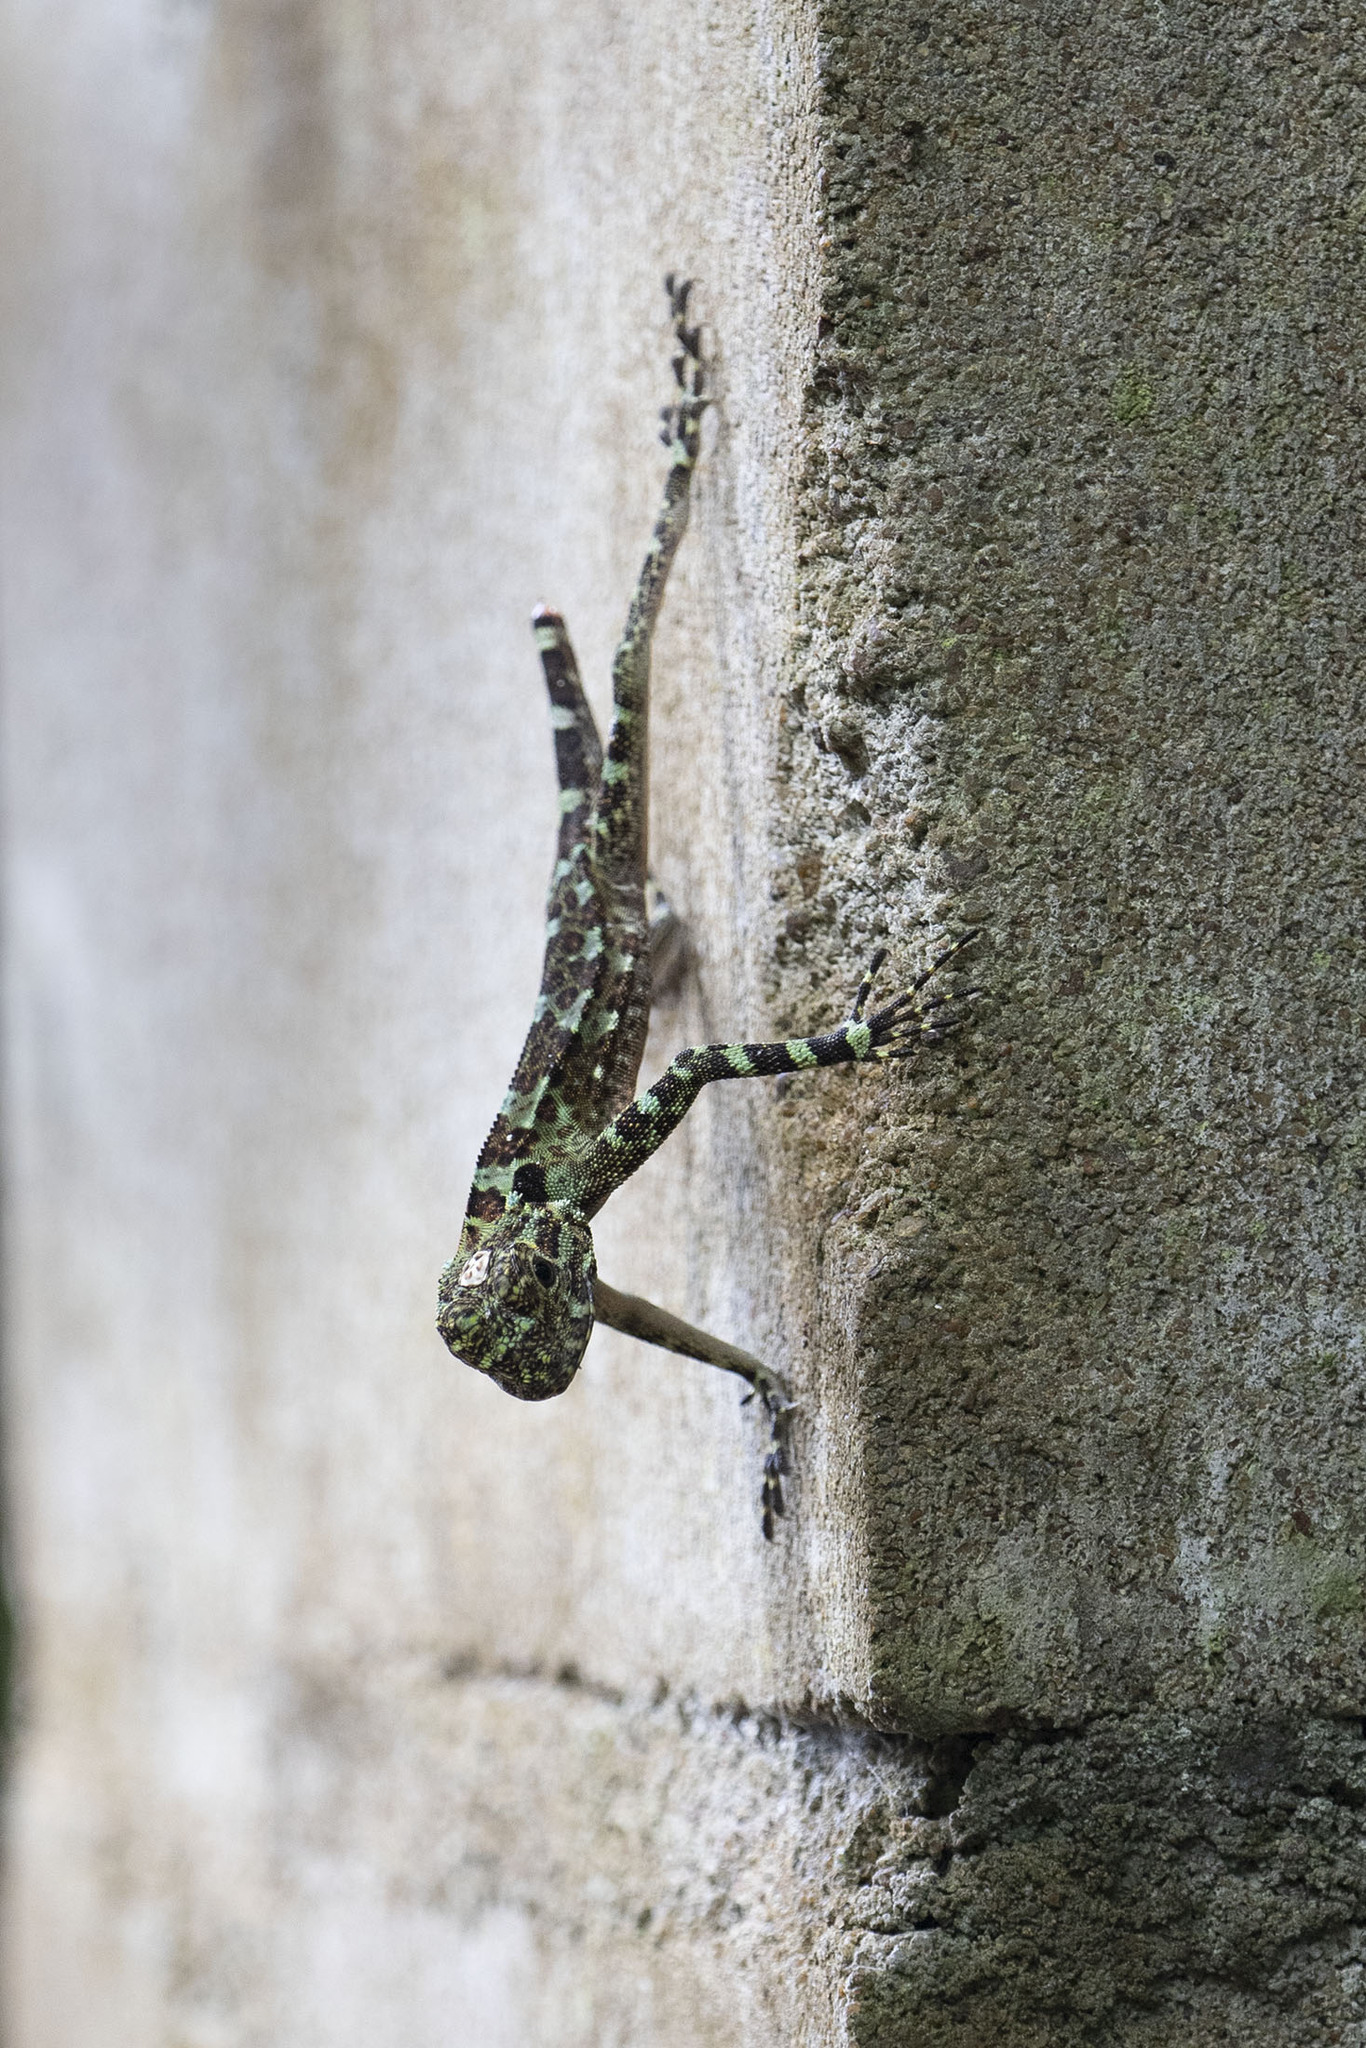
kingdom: Animalia
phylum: Chordata
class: Squamata
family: Tropiduridae
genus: Plica
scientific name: Plica plica
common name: Tree runner
